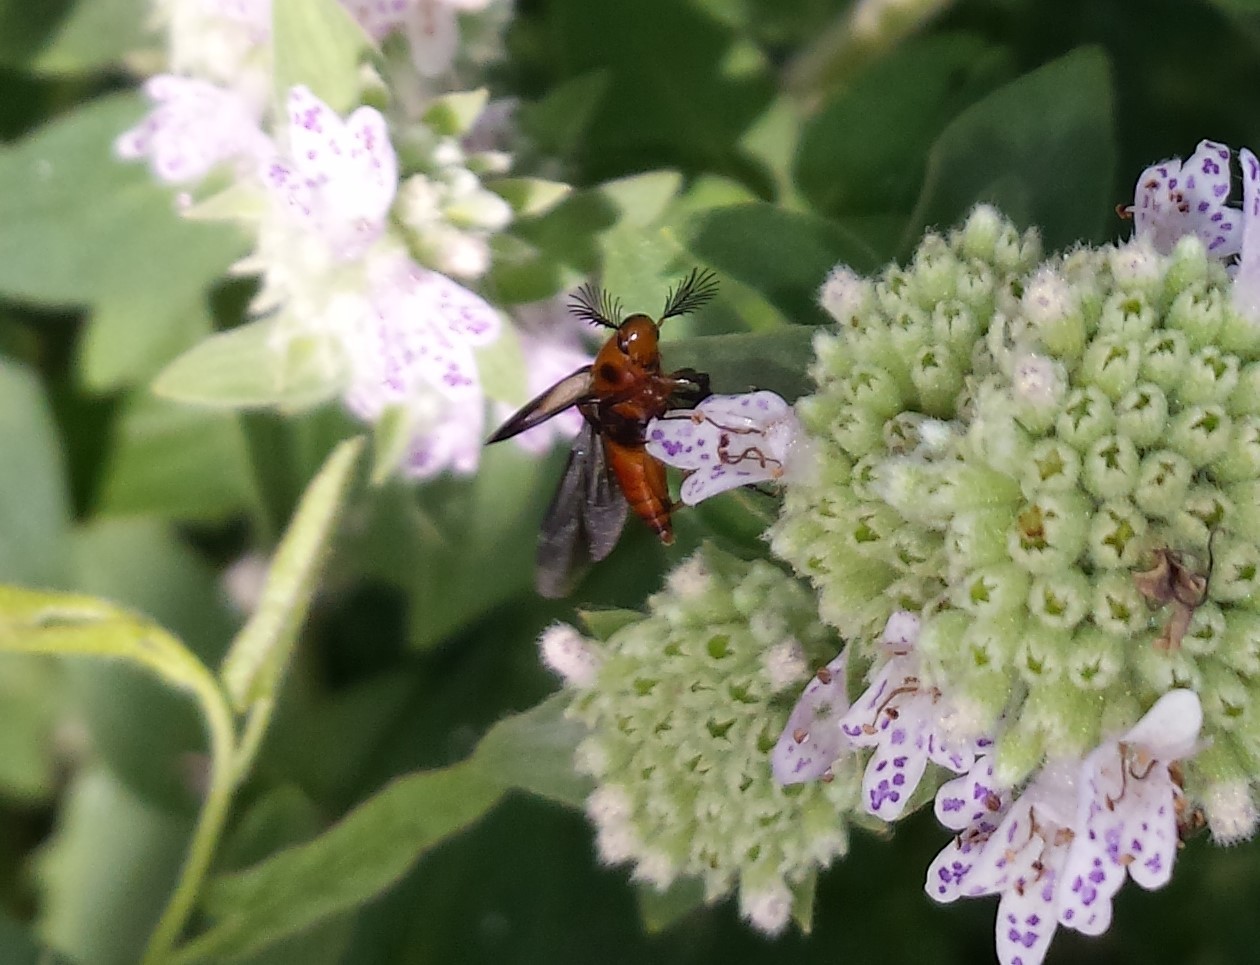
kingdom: Animalia
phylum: Arthropoda
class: Insecta
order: Coleoptera
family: Ripiphoridae
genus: Macrosiagon
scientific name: Macrosiagon limbatum
